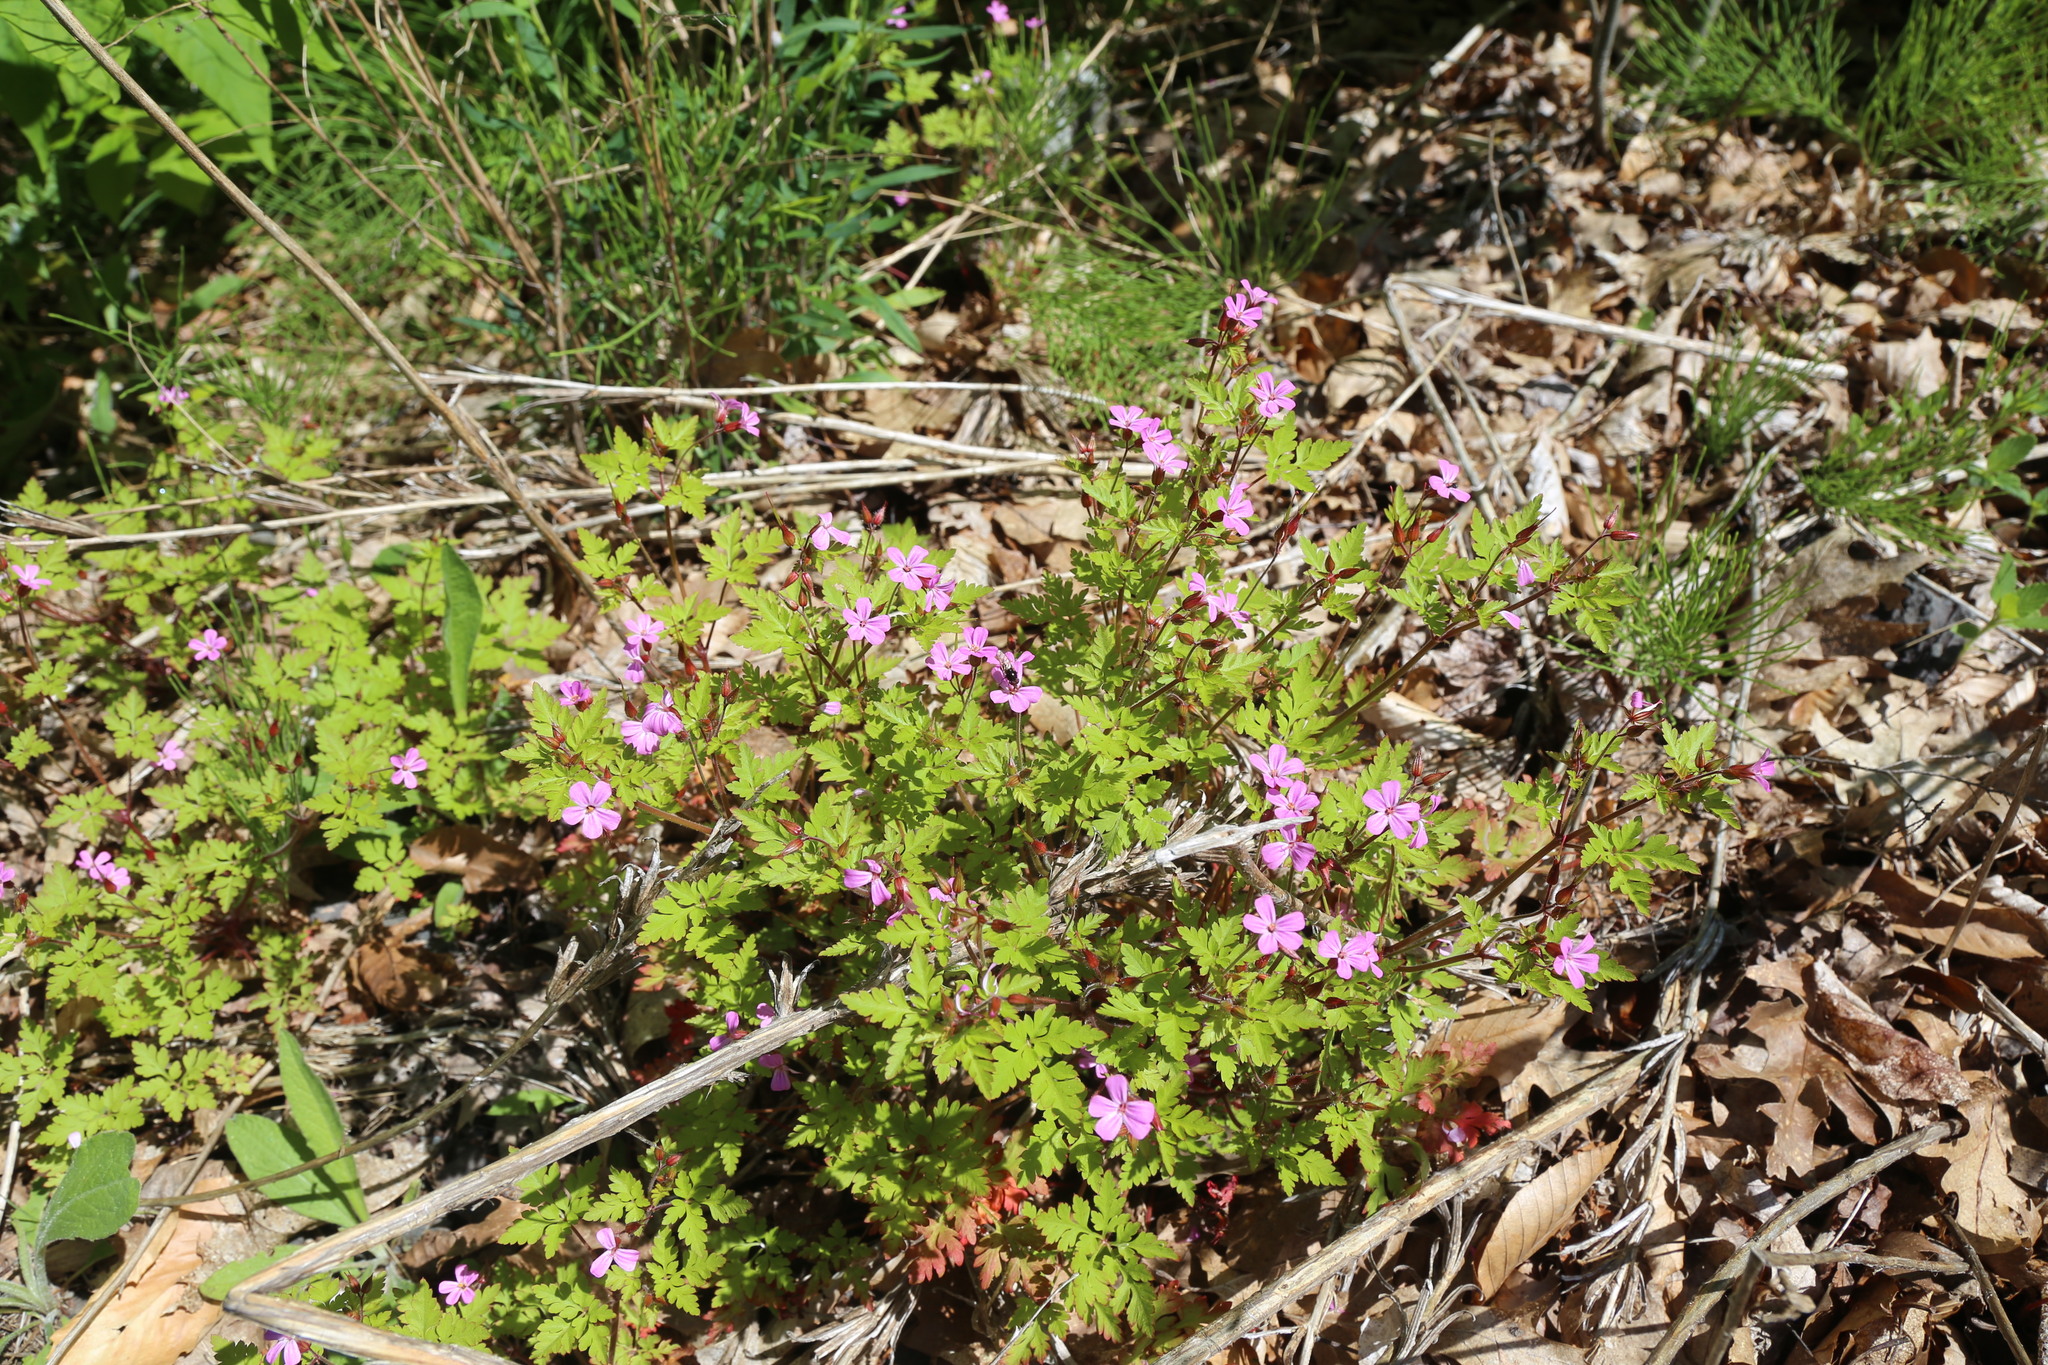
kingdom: Plantae
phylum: Tracheophyta
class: Magnoliopsida
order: Geraniales
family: Geraniaceae
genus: Geranium
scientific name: Geranium robertianum
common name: Herb-robert
